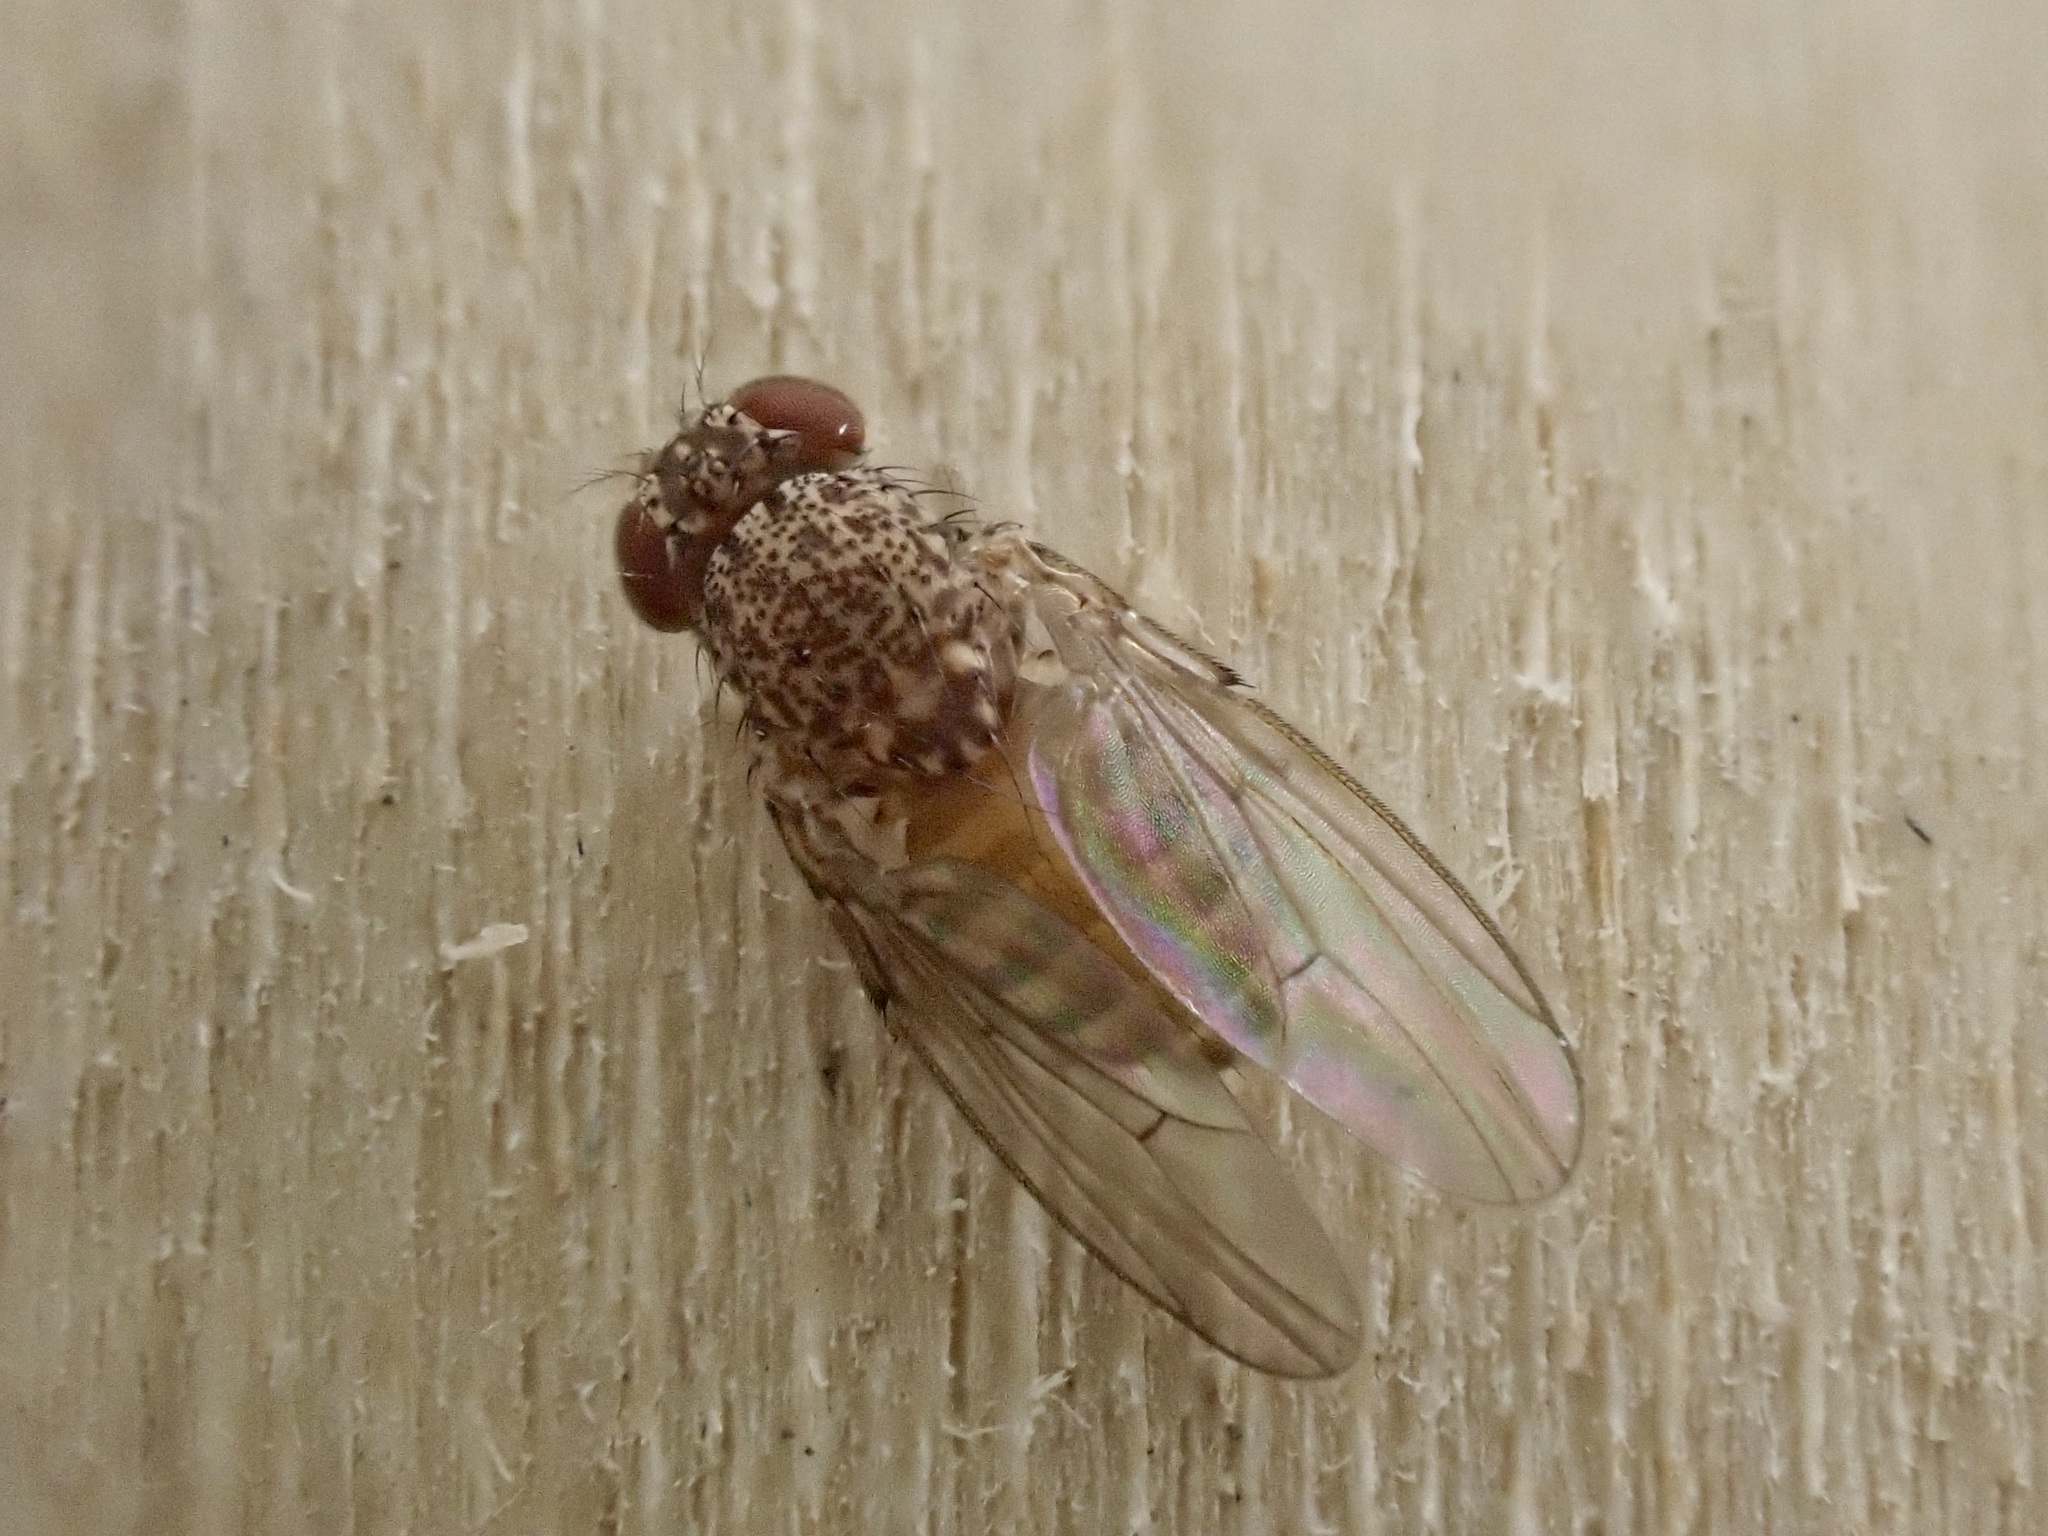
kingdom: Animalia
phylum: Arthropoda
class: Insecta
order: Diptera
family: Drosophilidae
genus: Drosophila
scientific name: Drosophila repleta
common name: Pomace fly
